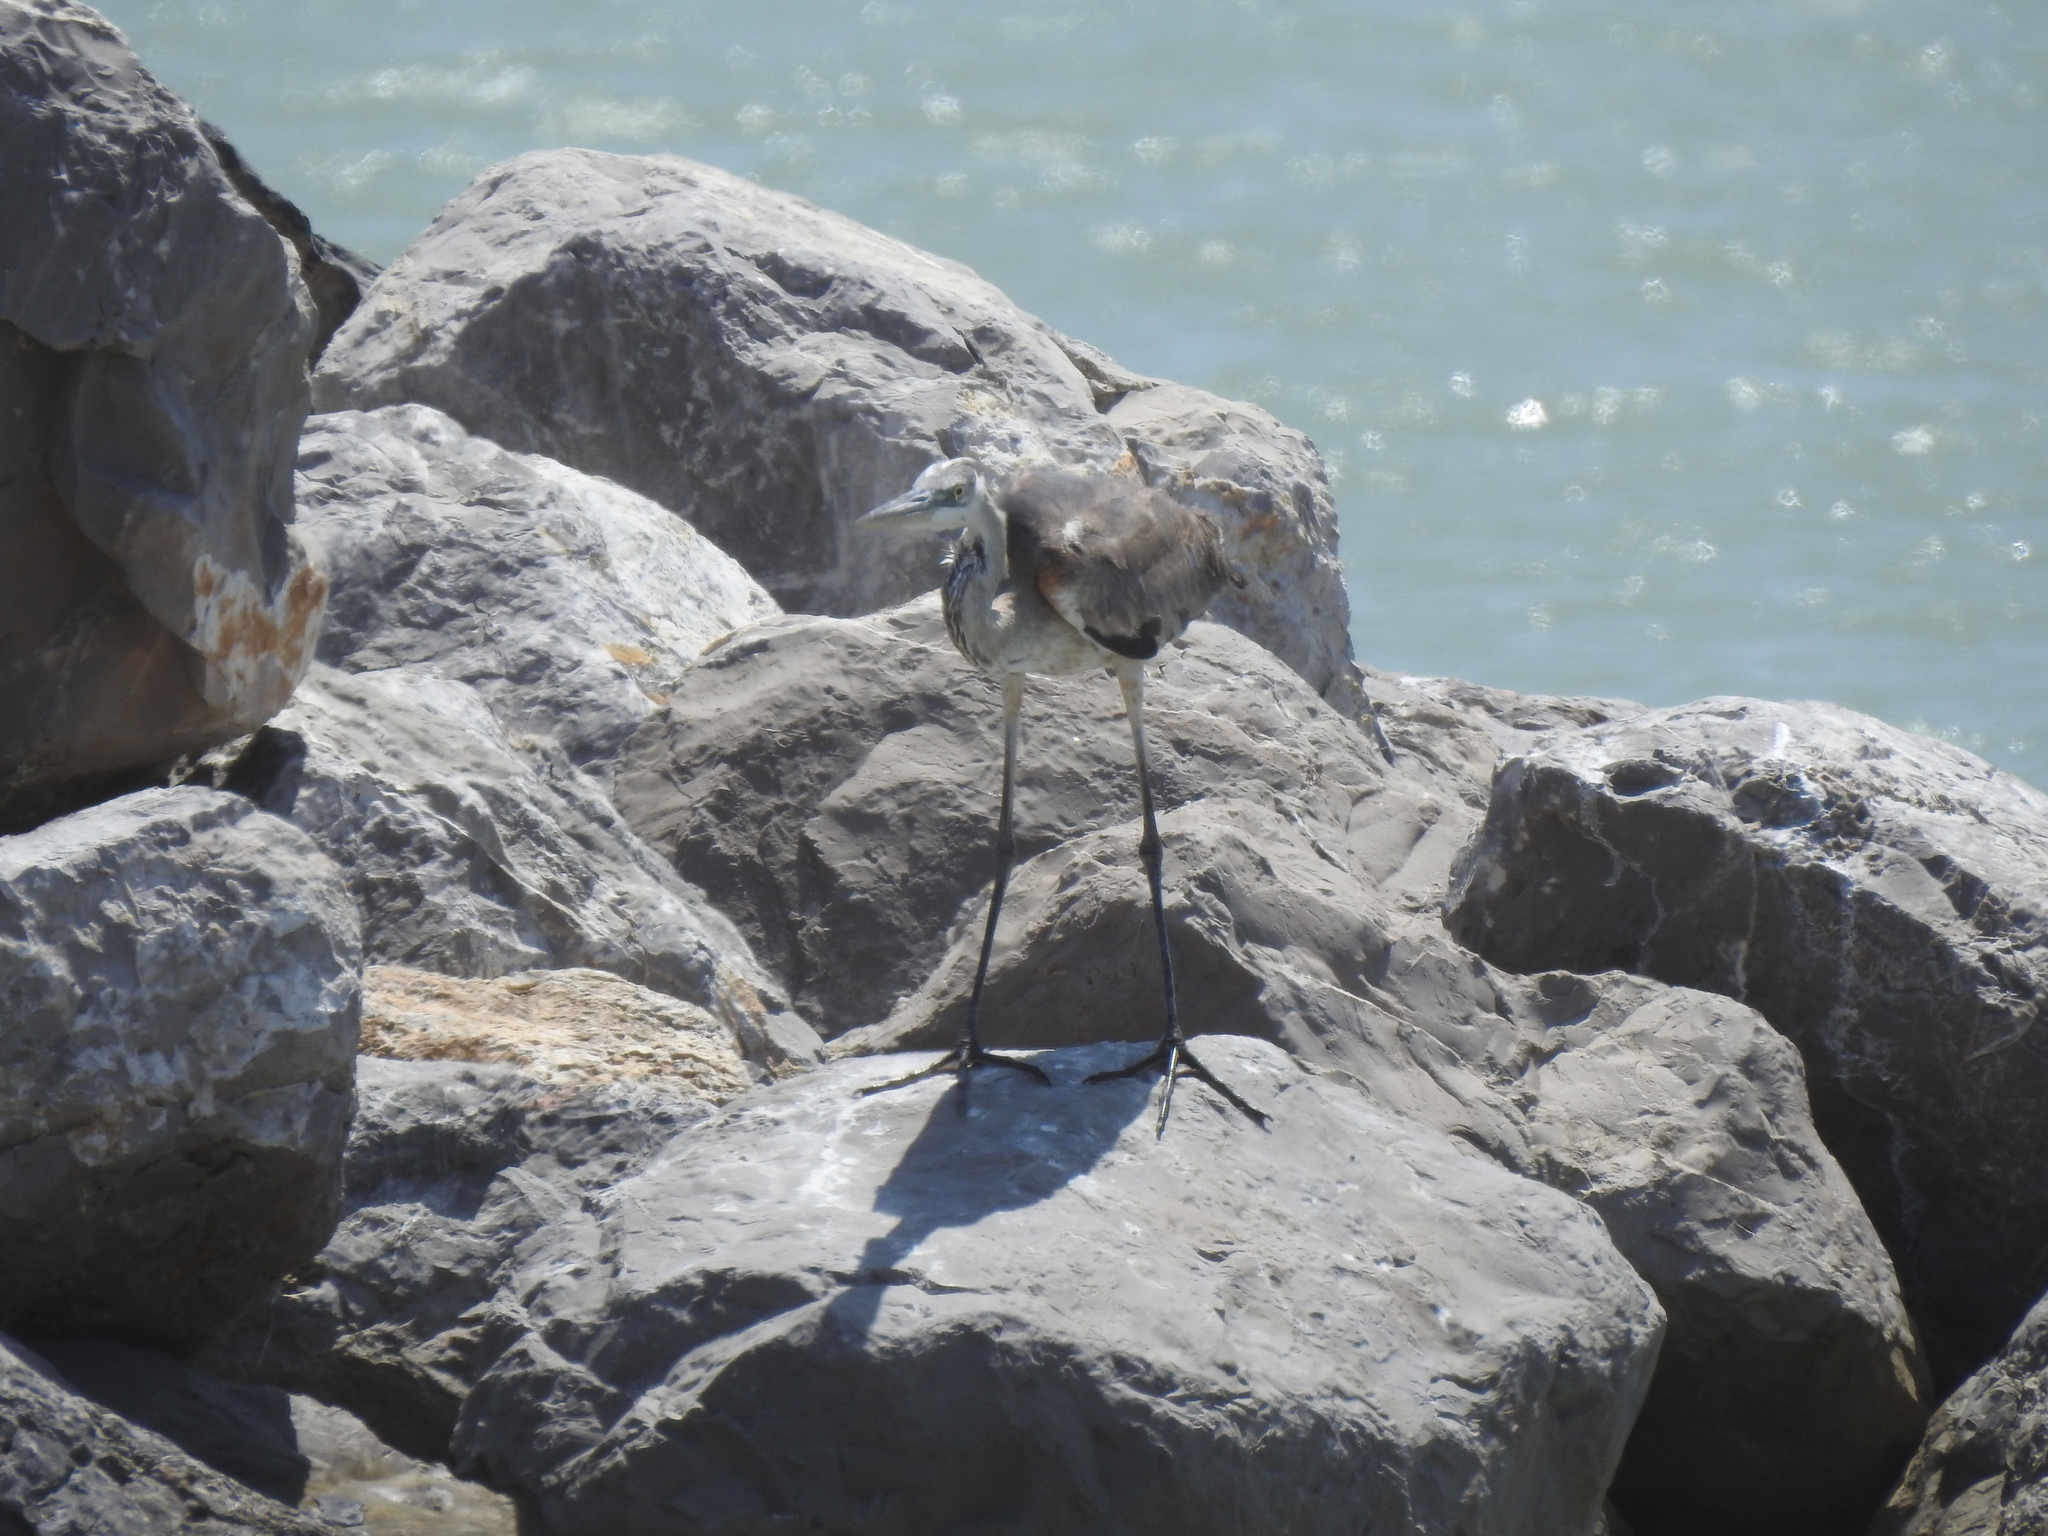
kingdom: Animalia
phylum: Chordata
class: Aves
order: Pelecaniformes
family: Ardeidae
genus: Ardea
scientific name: Ardea herodias
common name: Great blue heron
